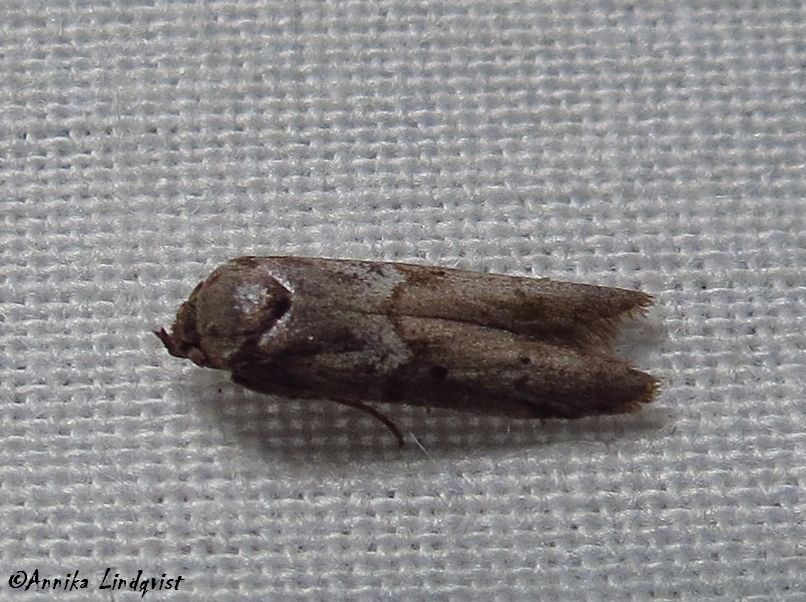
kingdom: Animalia
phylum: Arthropoda
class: Insecta
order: Lepidoptera
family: Blastobasidae
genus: Blastobasis
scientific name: Blastobasis glandulella
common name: Acorn moth
